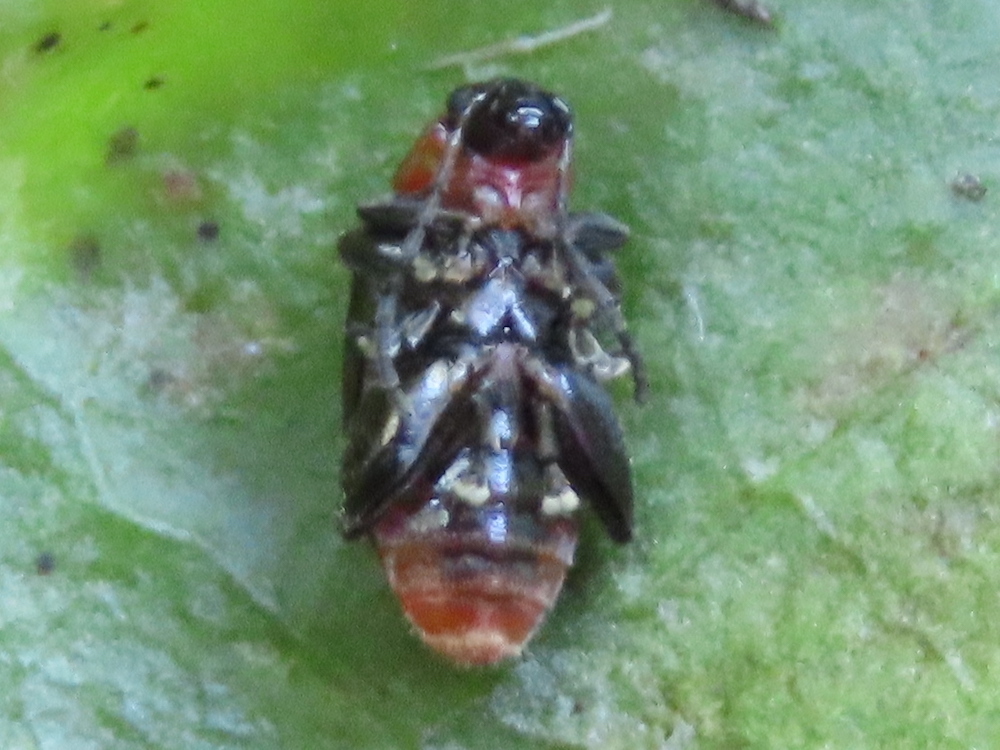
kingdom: Animalia
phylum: Arthropoda
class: Insecta
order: Coleoptera
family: Chrysomelidae
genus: Disonycha
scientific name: Disonycha xanthomelas
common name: Spinach flea beetle
